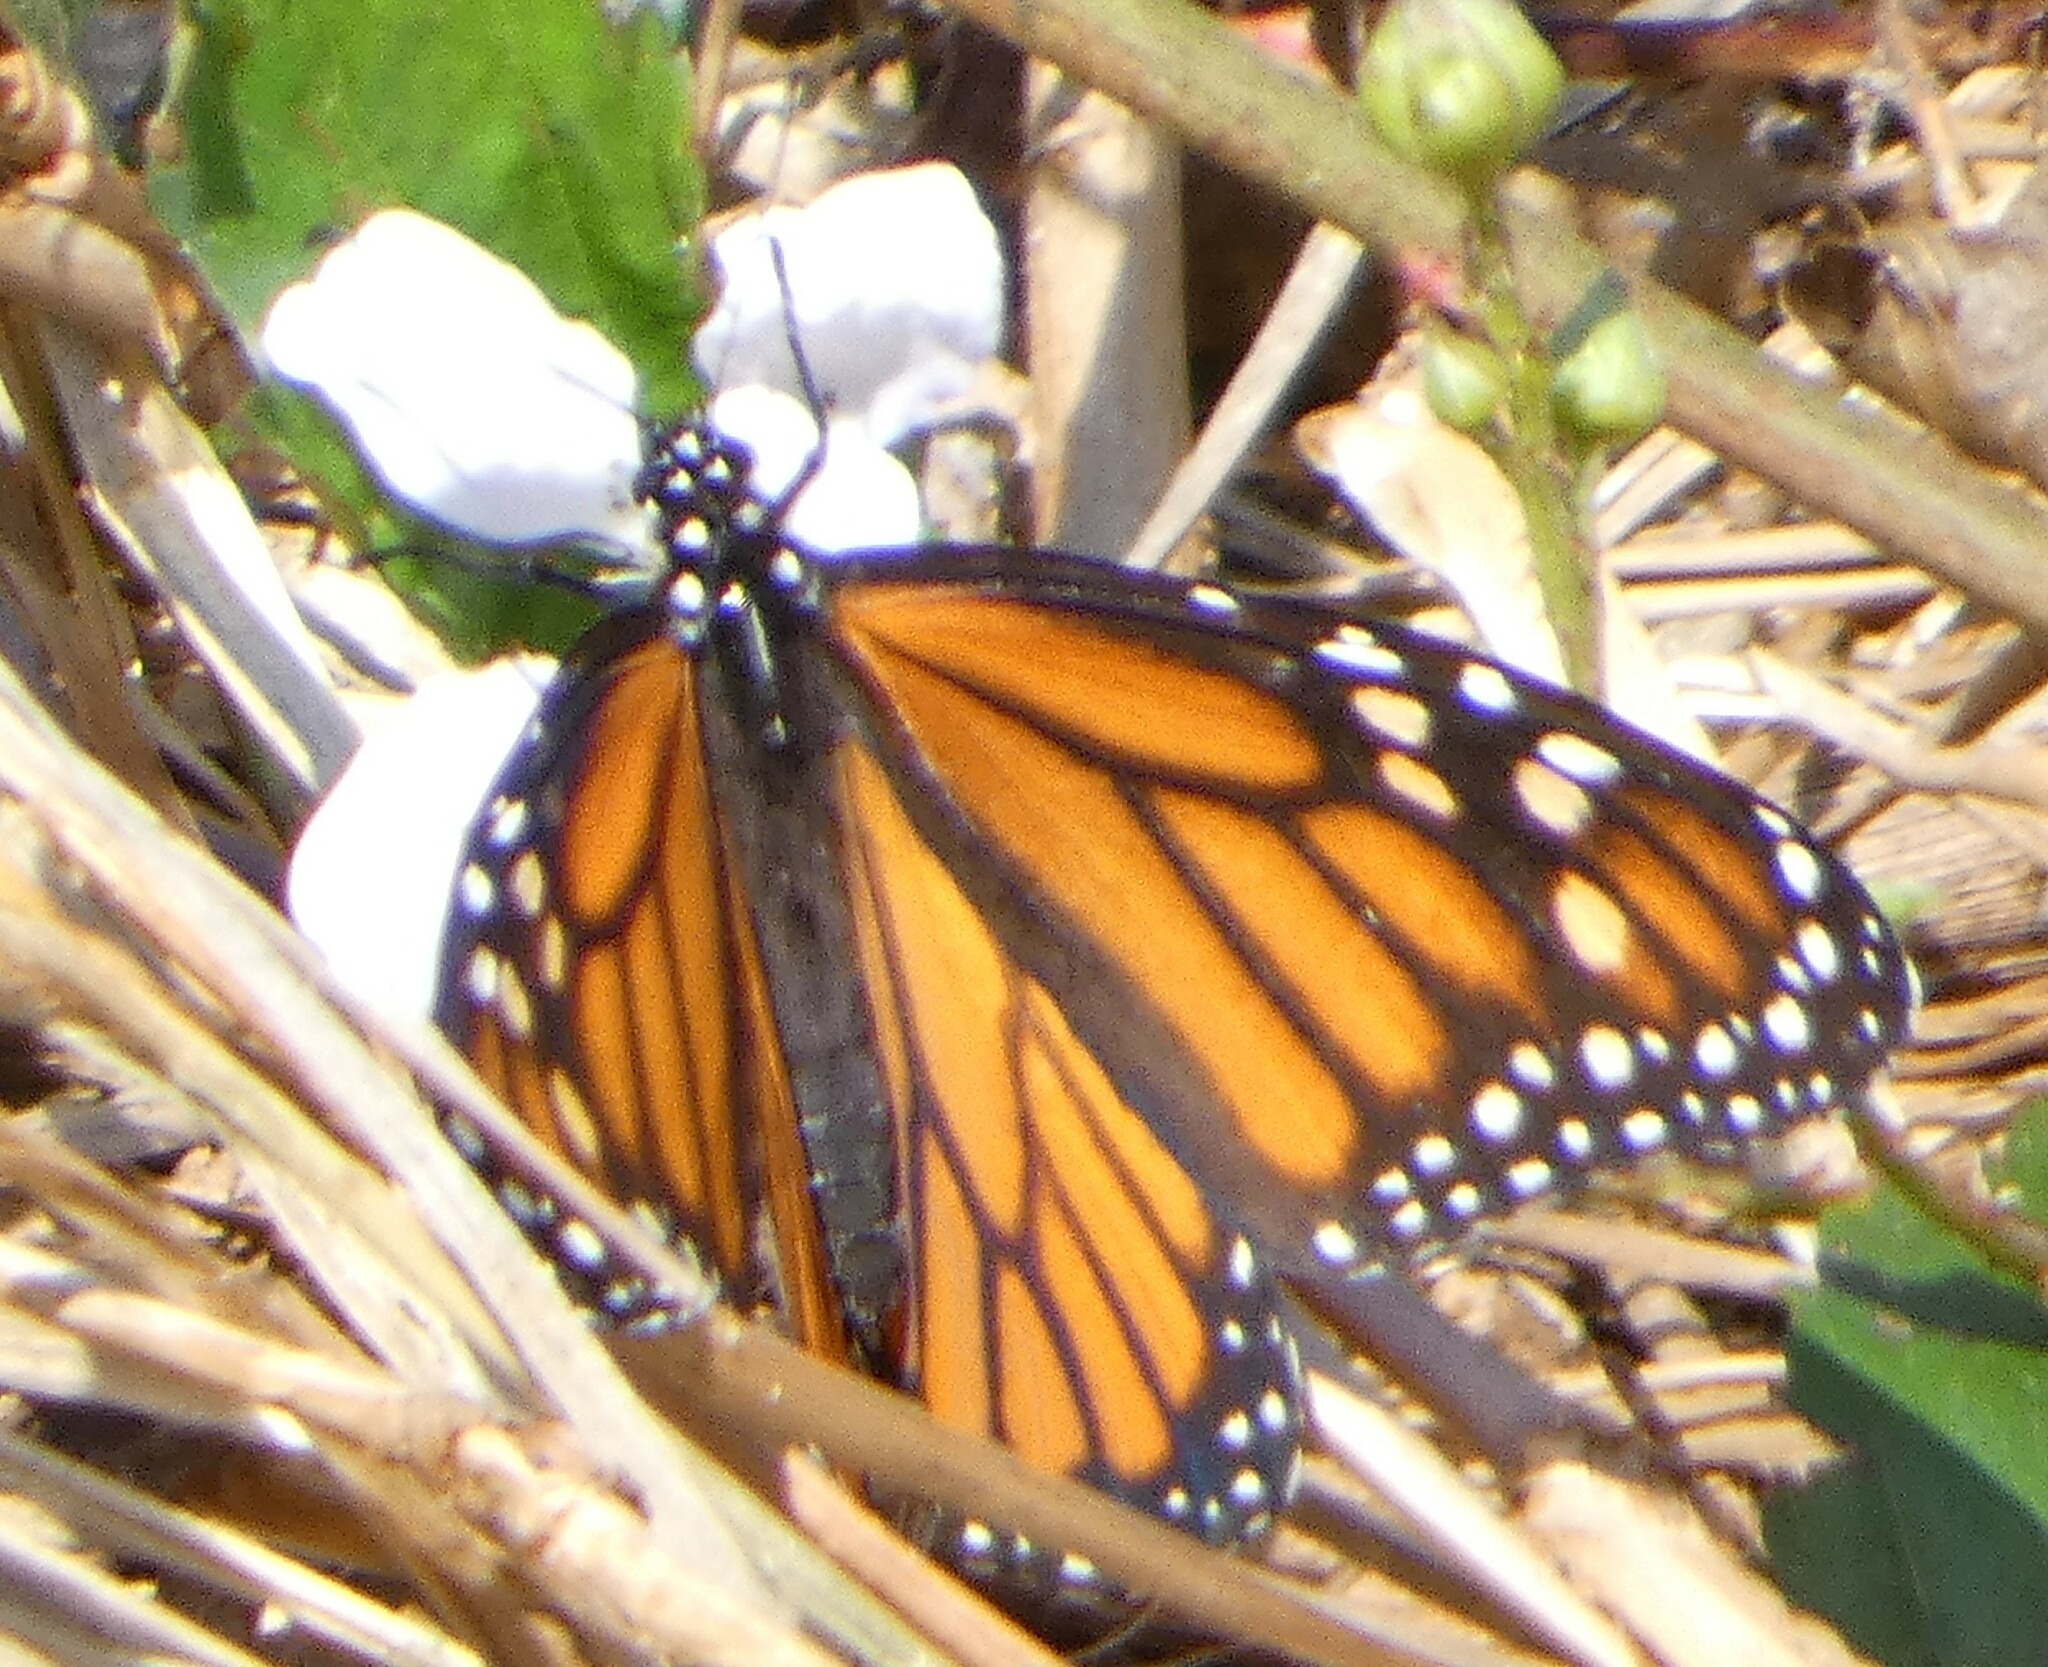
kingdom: Animalia
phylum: Arthropoda
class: Insecta
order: Lepidoptera
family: Nymphalidae
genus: Danaus
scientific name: Danaus plexippus
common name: Monarch
